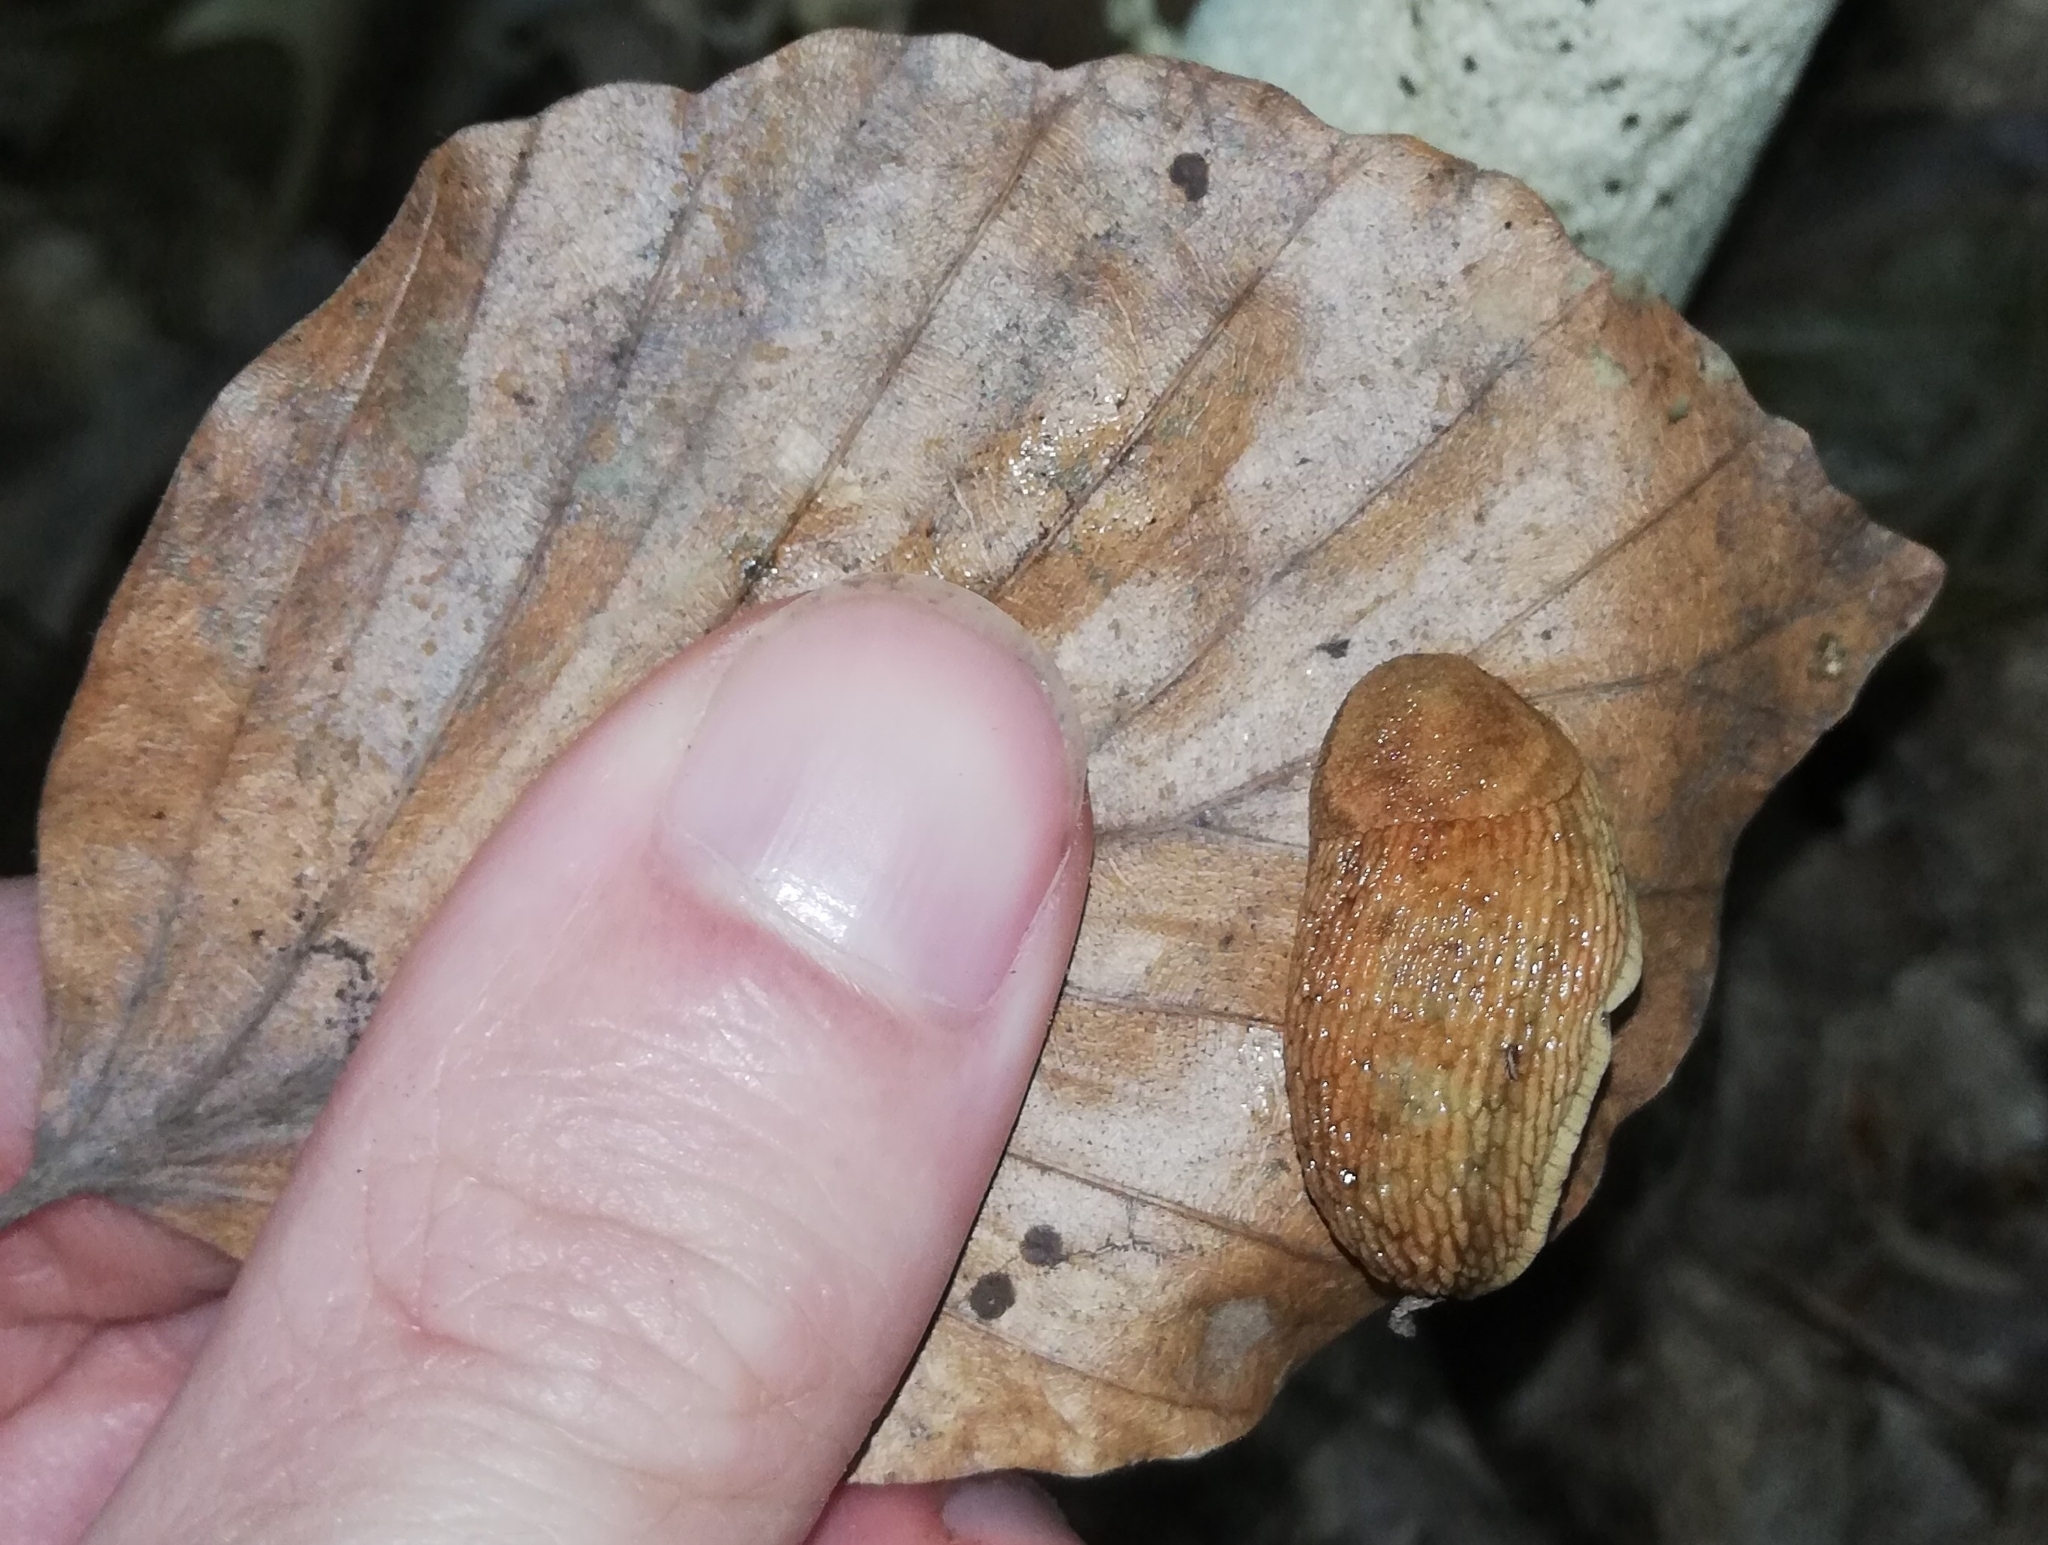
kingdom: Animalia
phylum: Mollusca
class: Gastropoda
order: Stylommatophora
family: Arionidae
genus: Arion
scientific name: Arion fuscus
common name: Northern dusky slug
